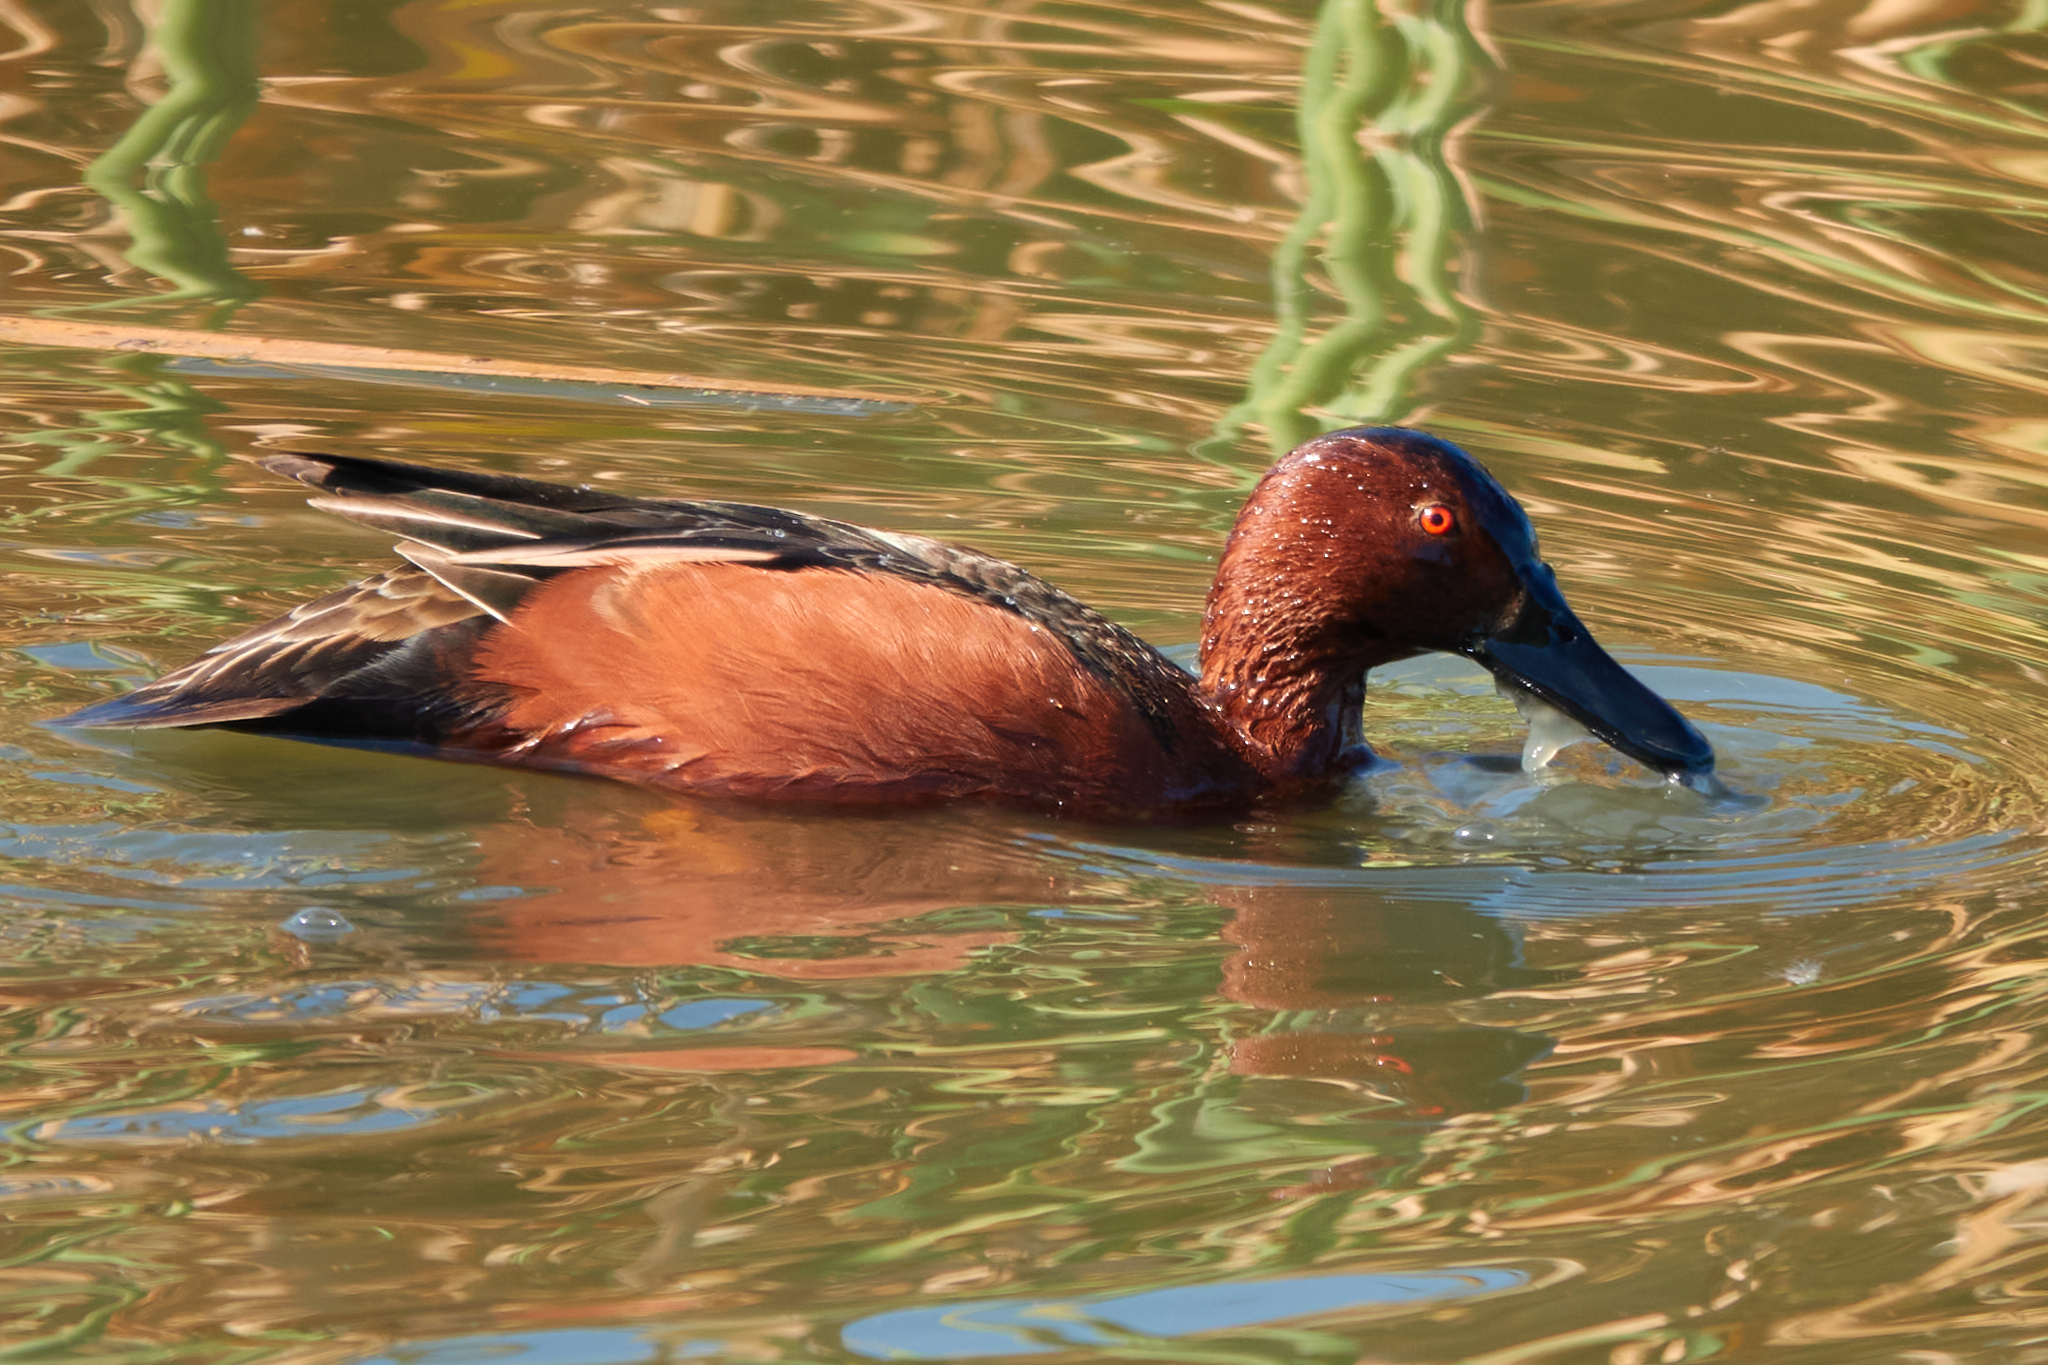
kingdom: Animalia
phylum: Chordata
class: Aves
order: Anseriformes
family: Anatidae
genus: Spatula
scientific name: Spatula cyanoptera
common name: Cinnamon teal
